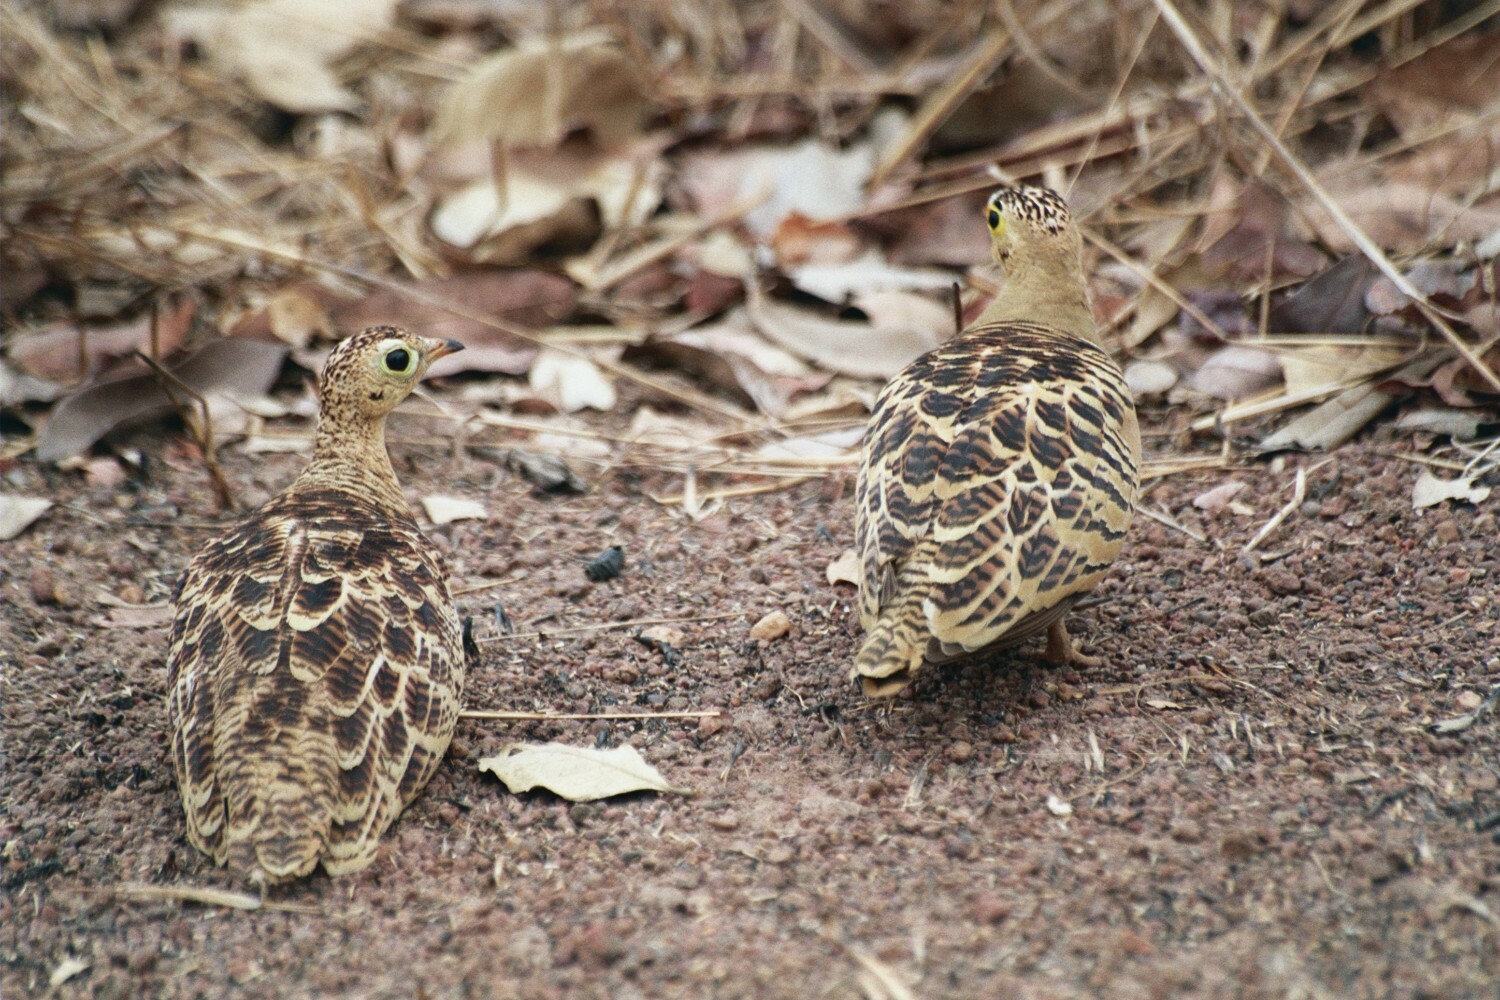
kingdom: Animalia
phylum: Chordata
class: Aves
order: Pteroclidiformes
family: Pteroclididae
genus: Pterocles
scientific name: Pterocles quadricinctus
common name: Four-banded sandgrouse
